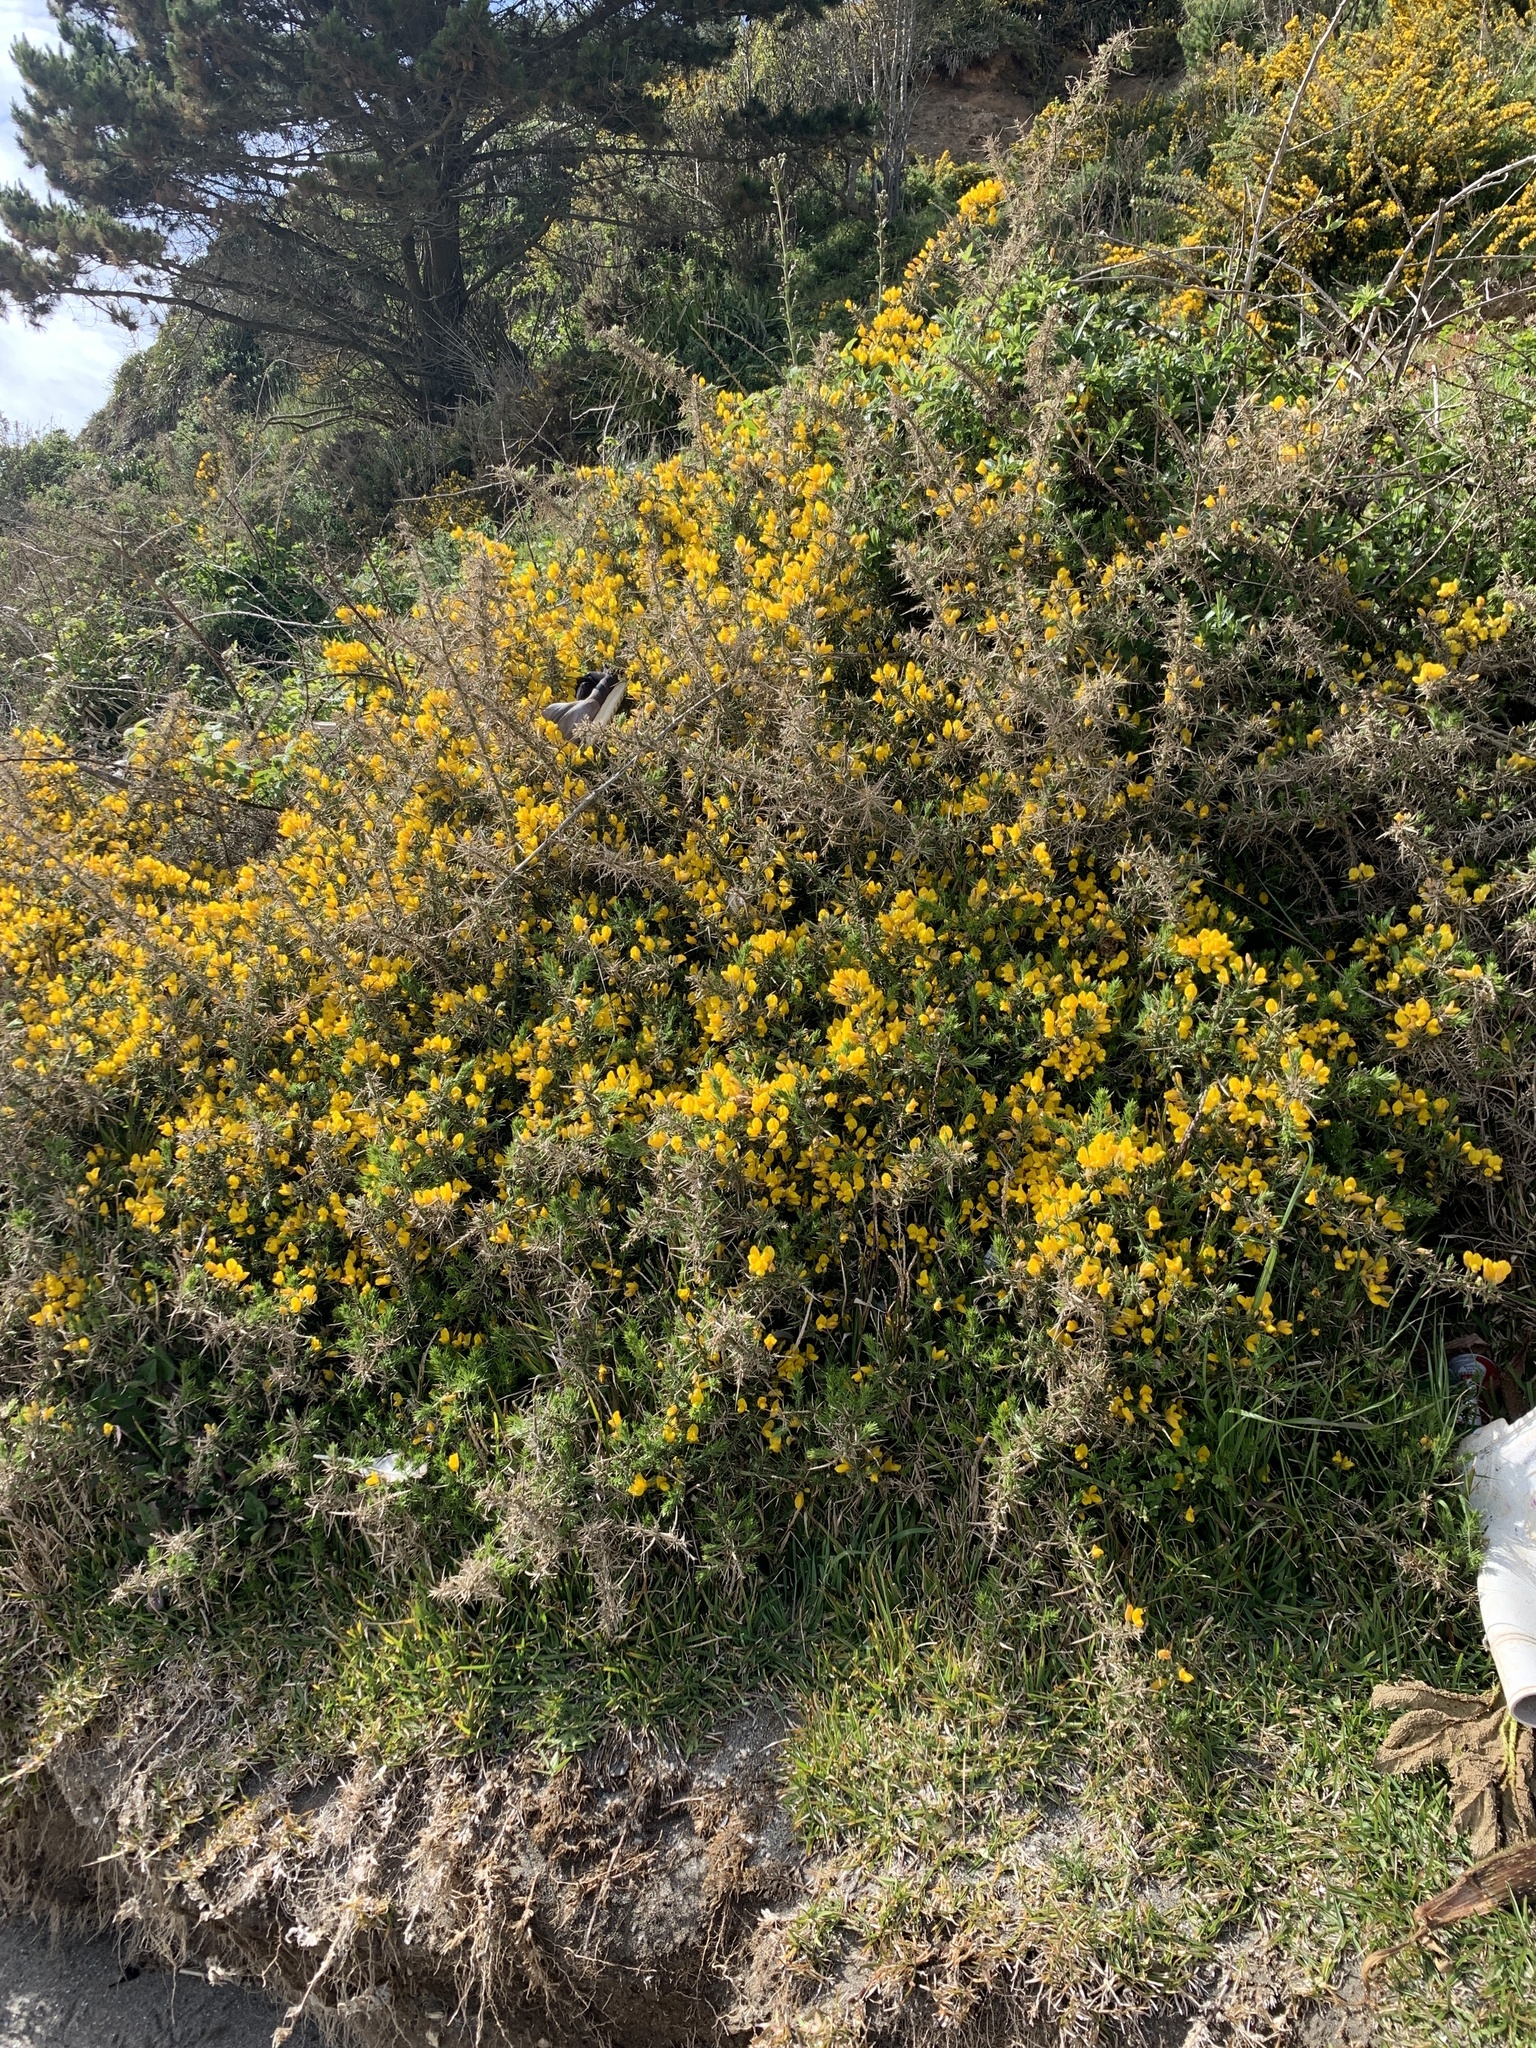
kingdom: Plantae
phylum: Tracheophyta
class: Magnoliopsida
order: Fabales
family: Fabaceae
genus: Ulex
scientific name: Ulex europaeus
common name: Common gorse
